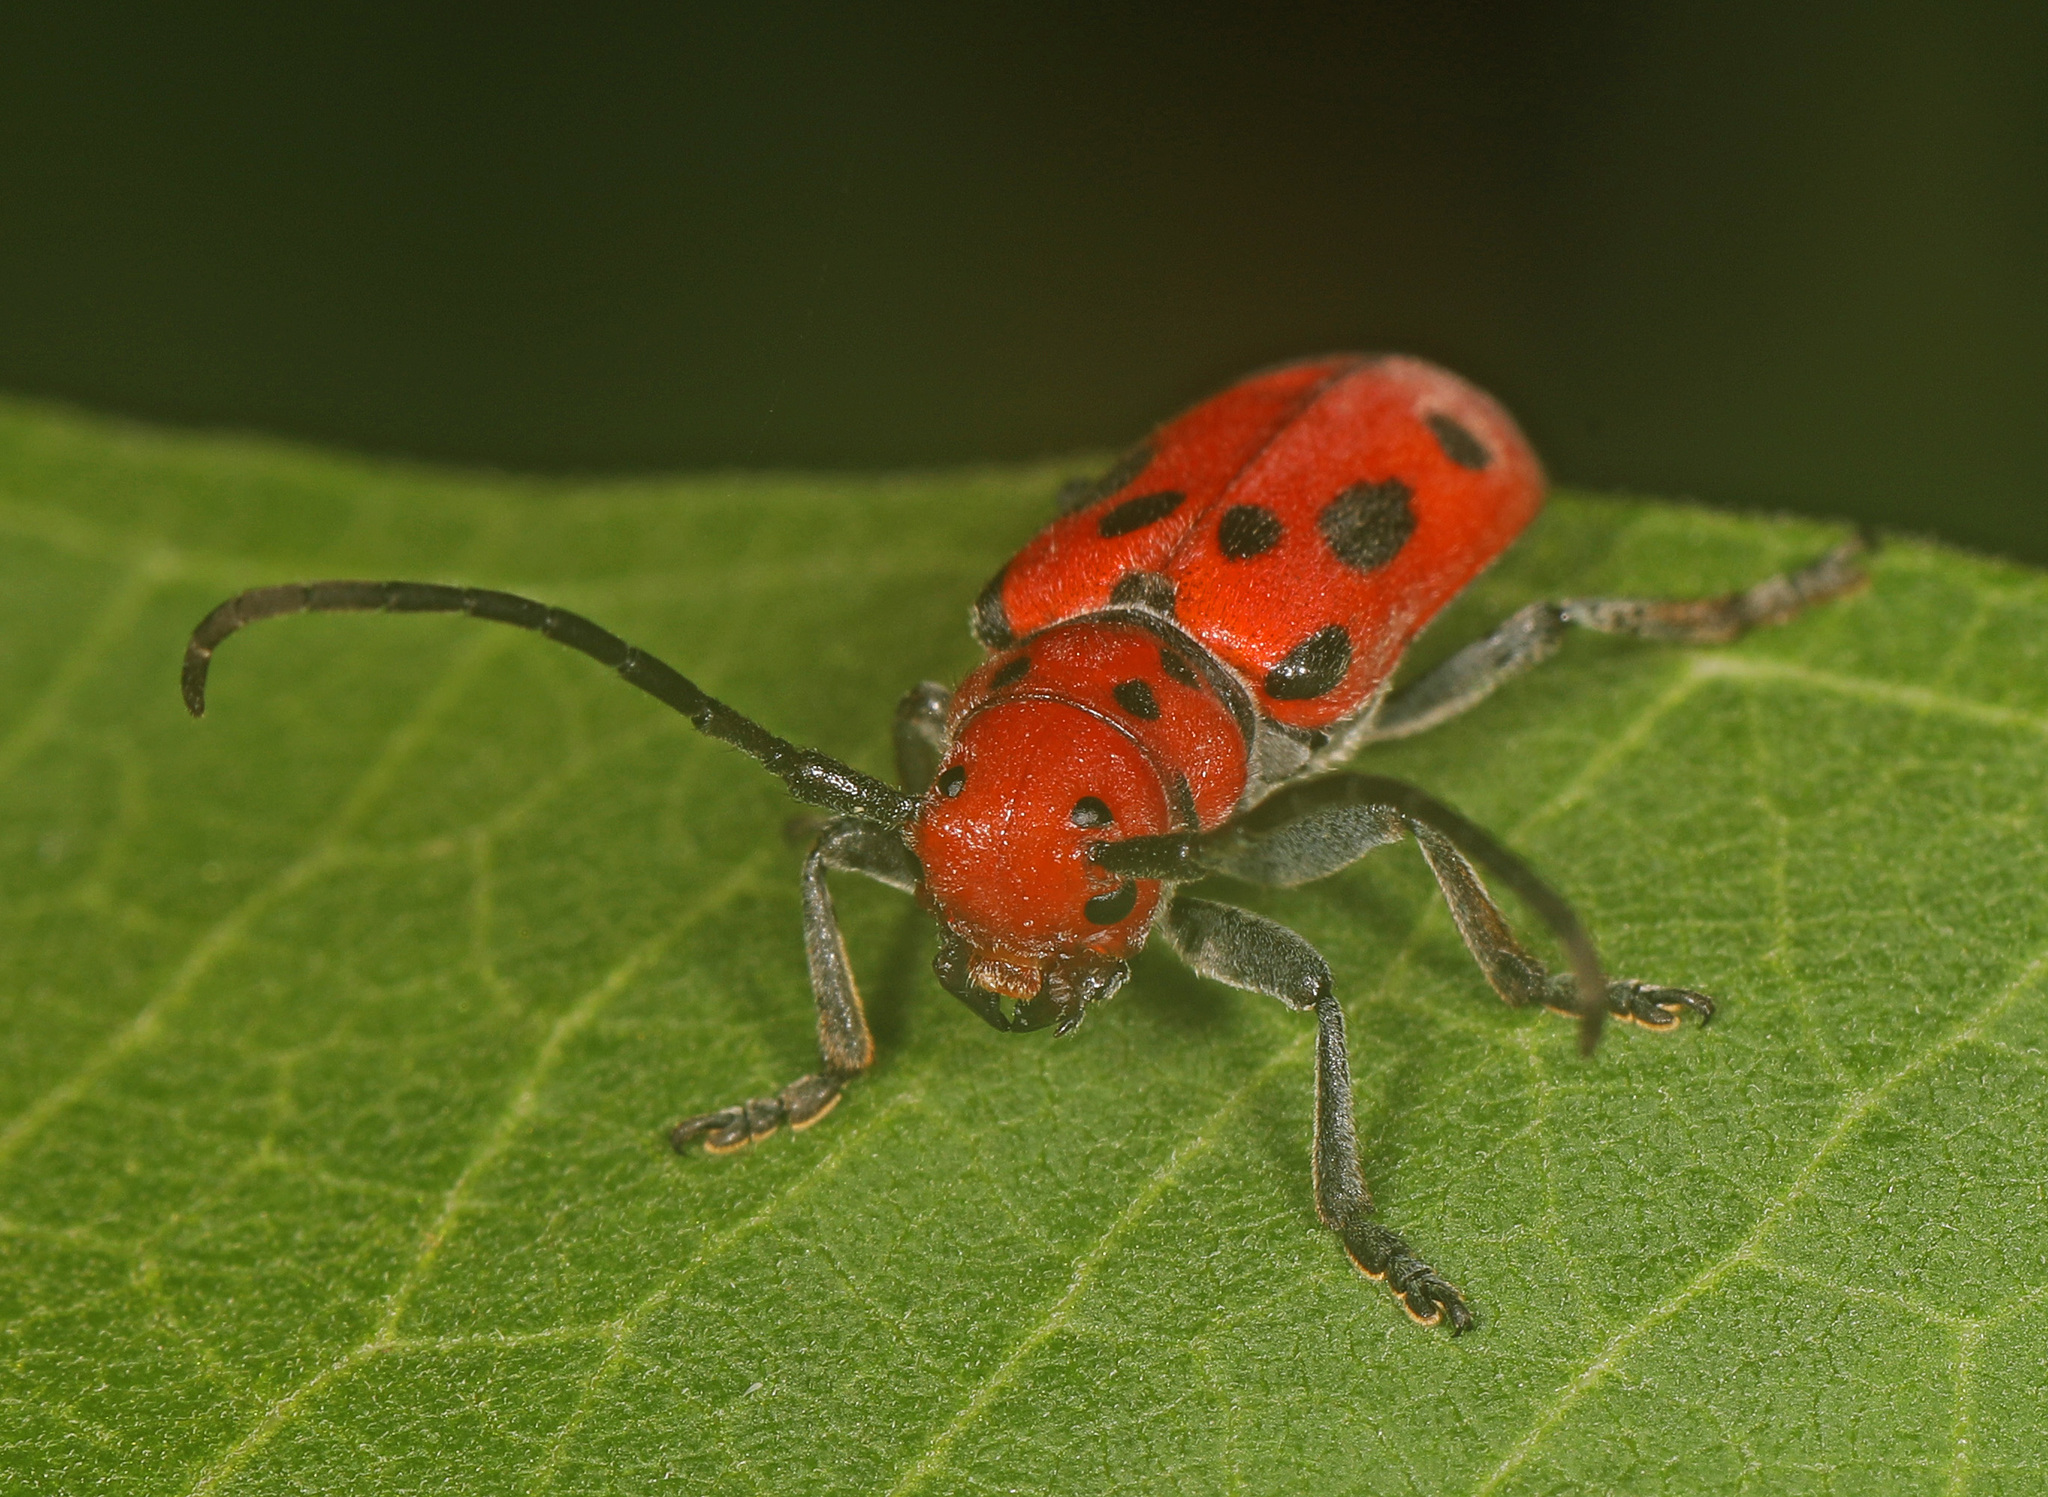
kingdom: Animalia
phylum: Arthropoda
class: Insecta
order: Coleoptera
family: Cerambycidae
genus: Tetraopes
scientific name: Tetraopes tetrophthalmus
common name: Red milkweed beetle
